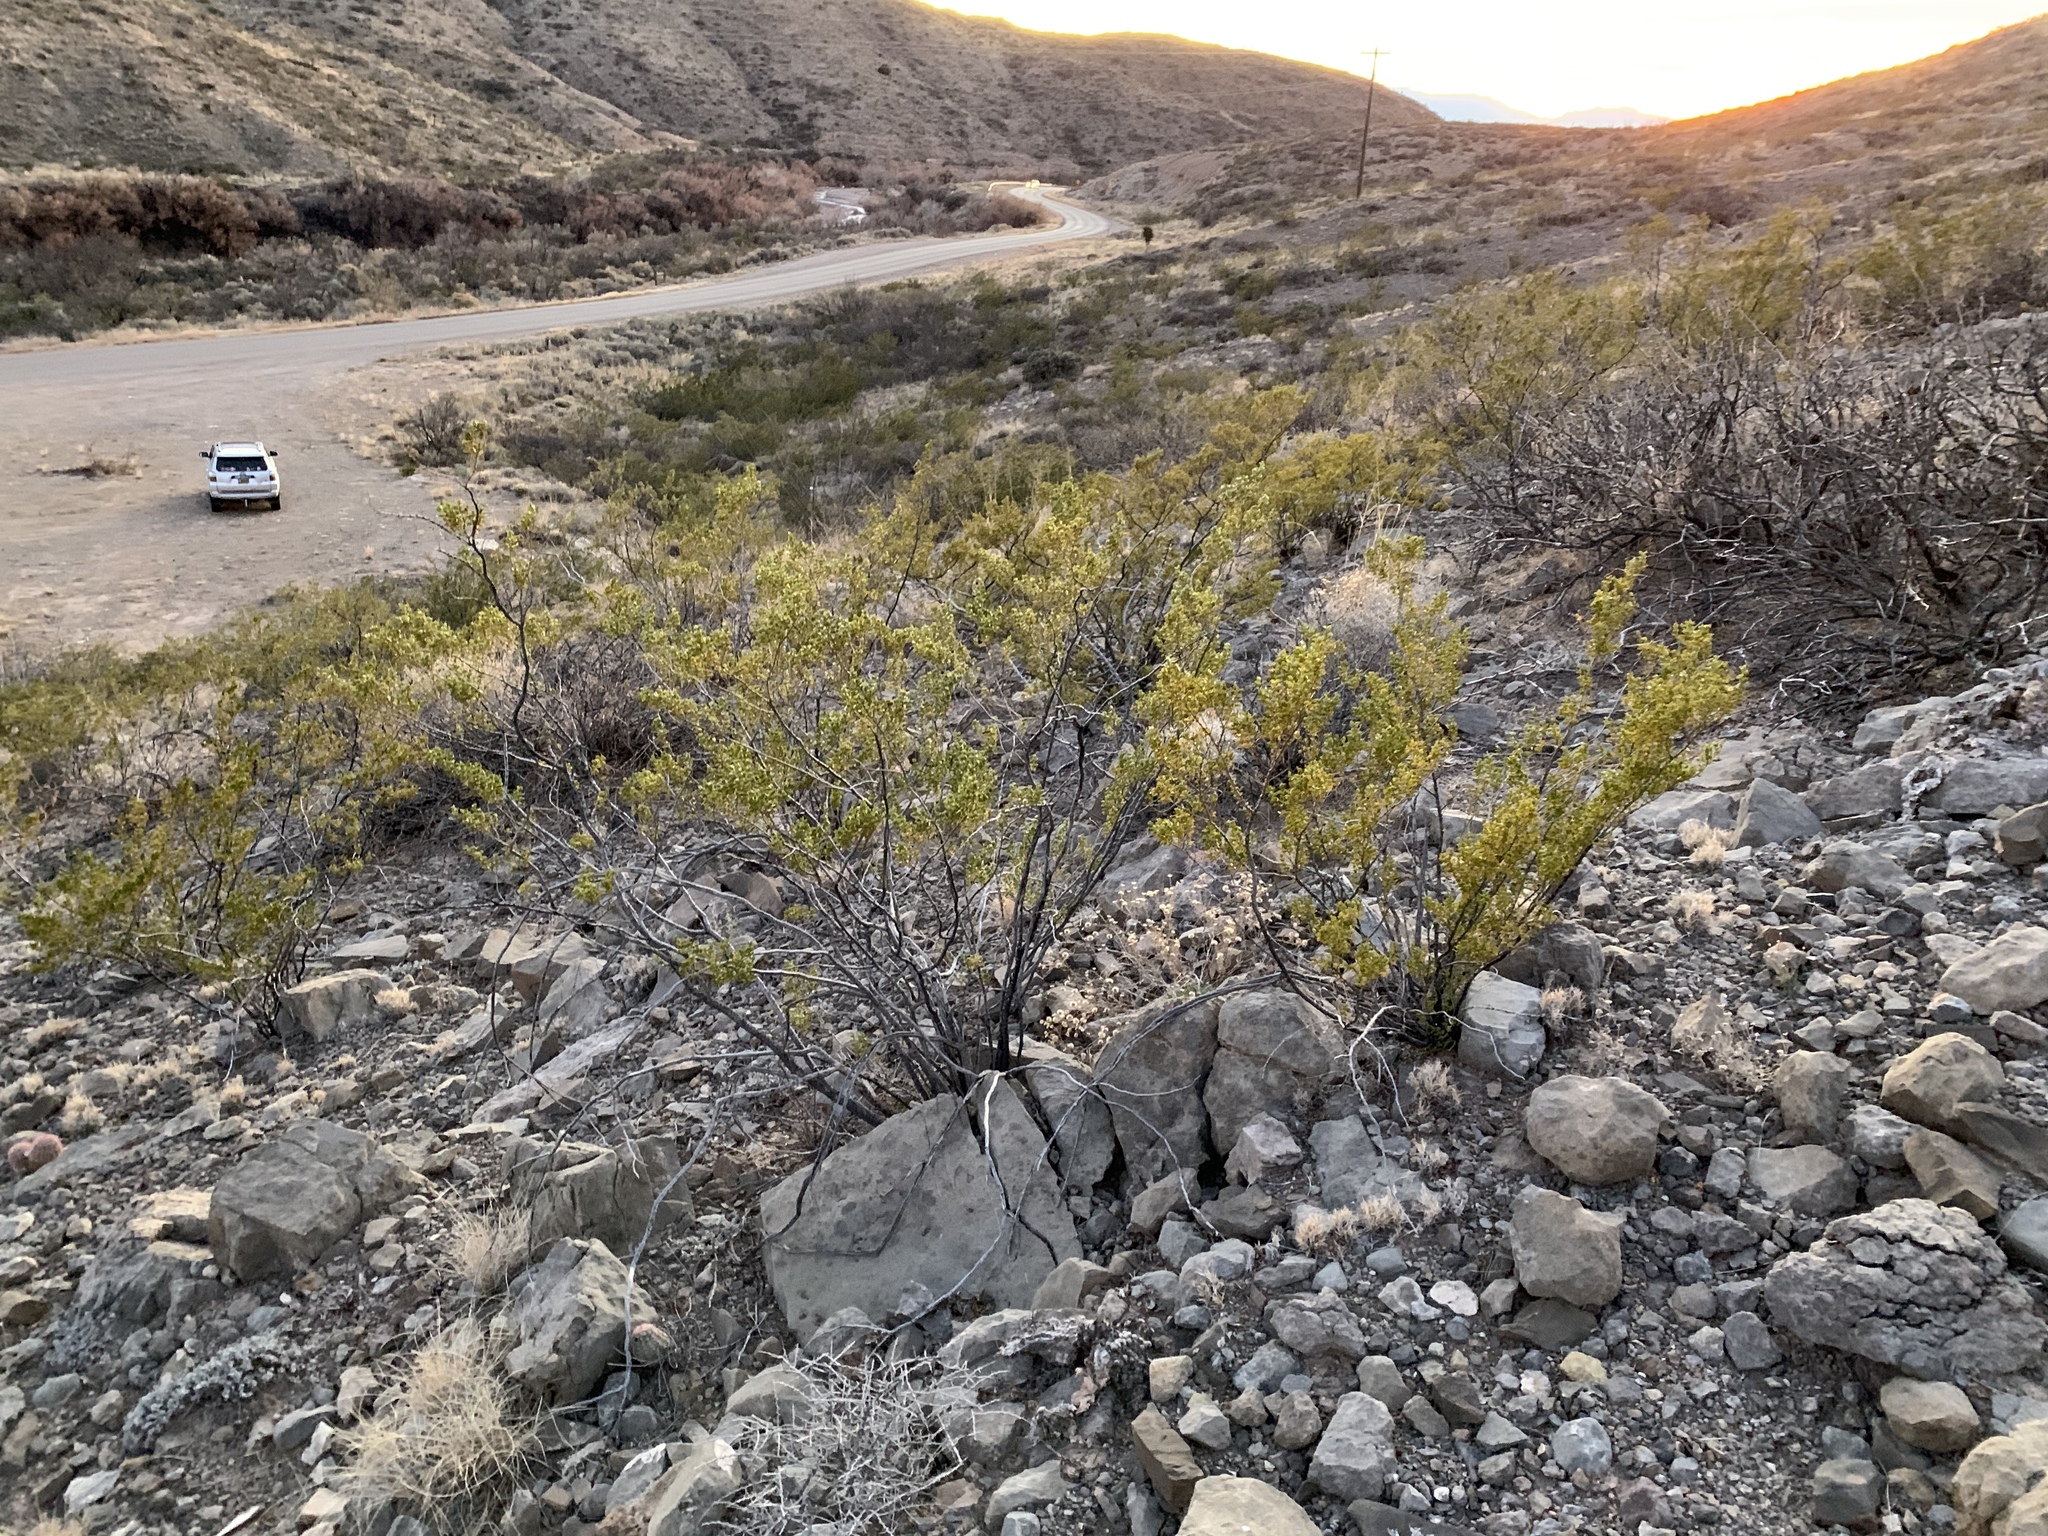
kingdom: Plantae
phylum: Tracheophyta
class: Magnoliopsida
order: Zygophyllales
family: Zygophyllaceae
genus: Larrea
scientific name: Larrea tridentata
